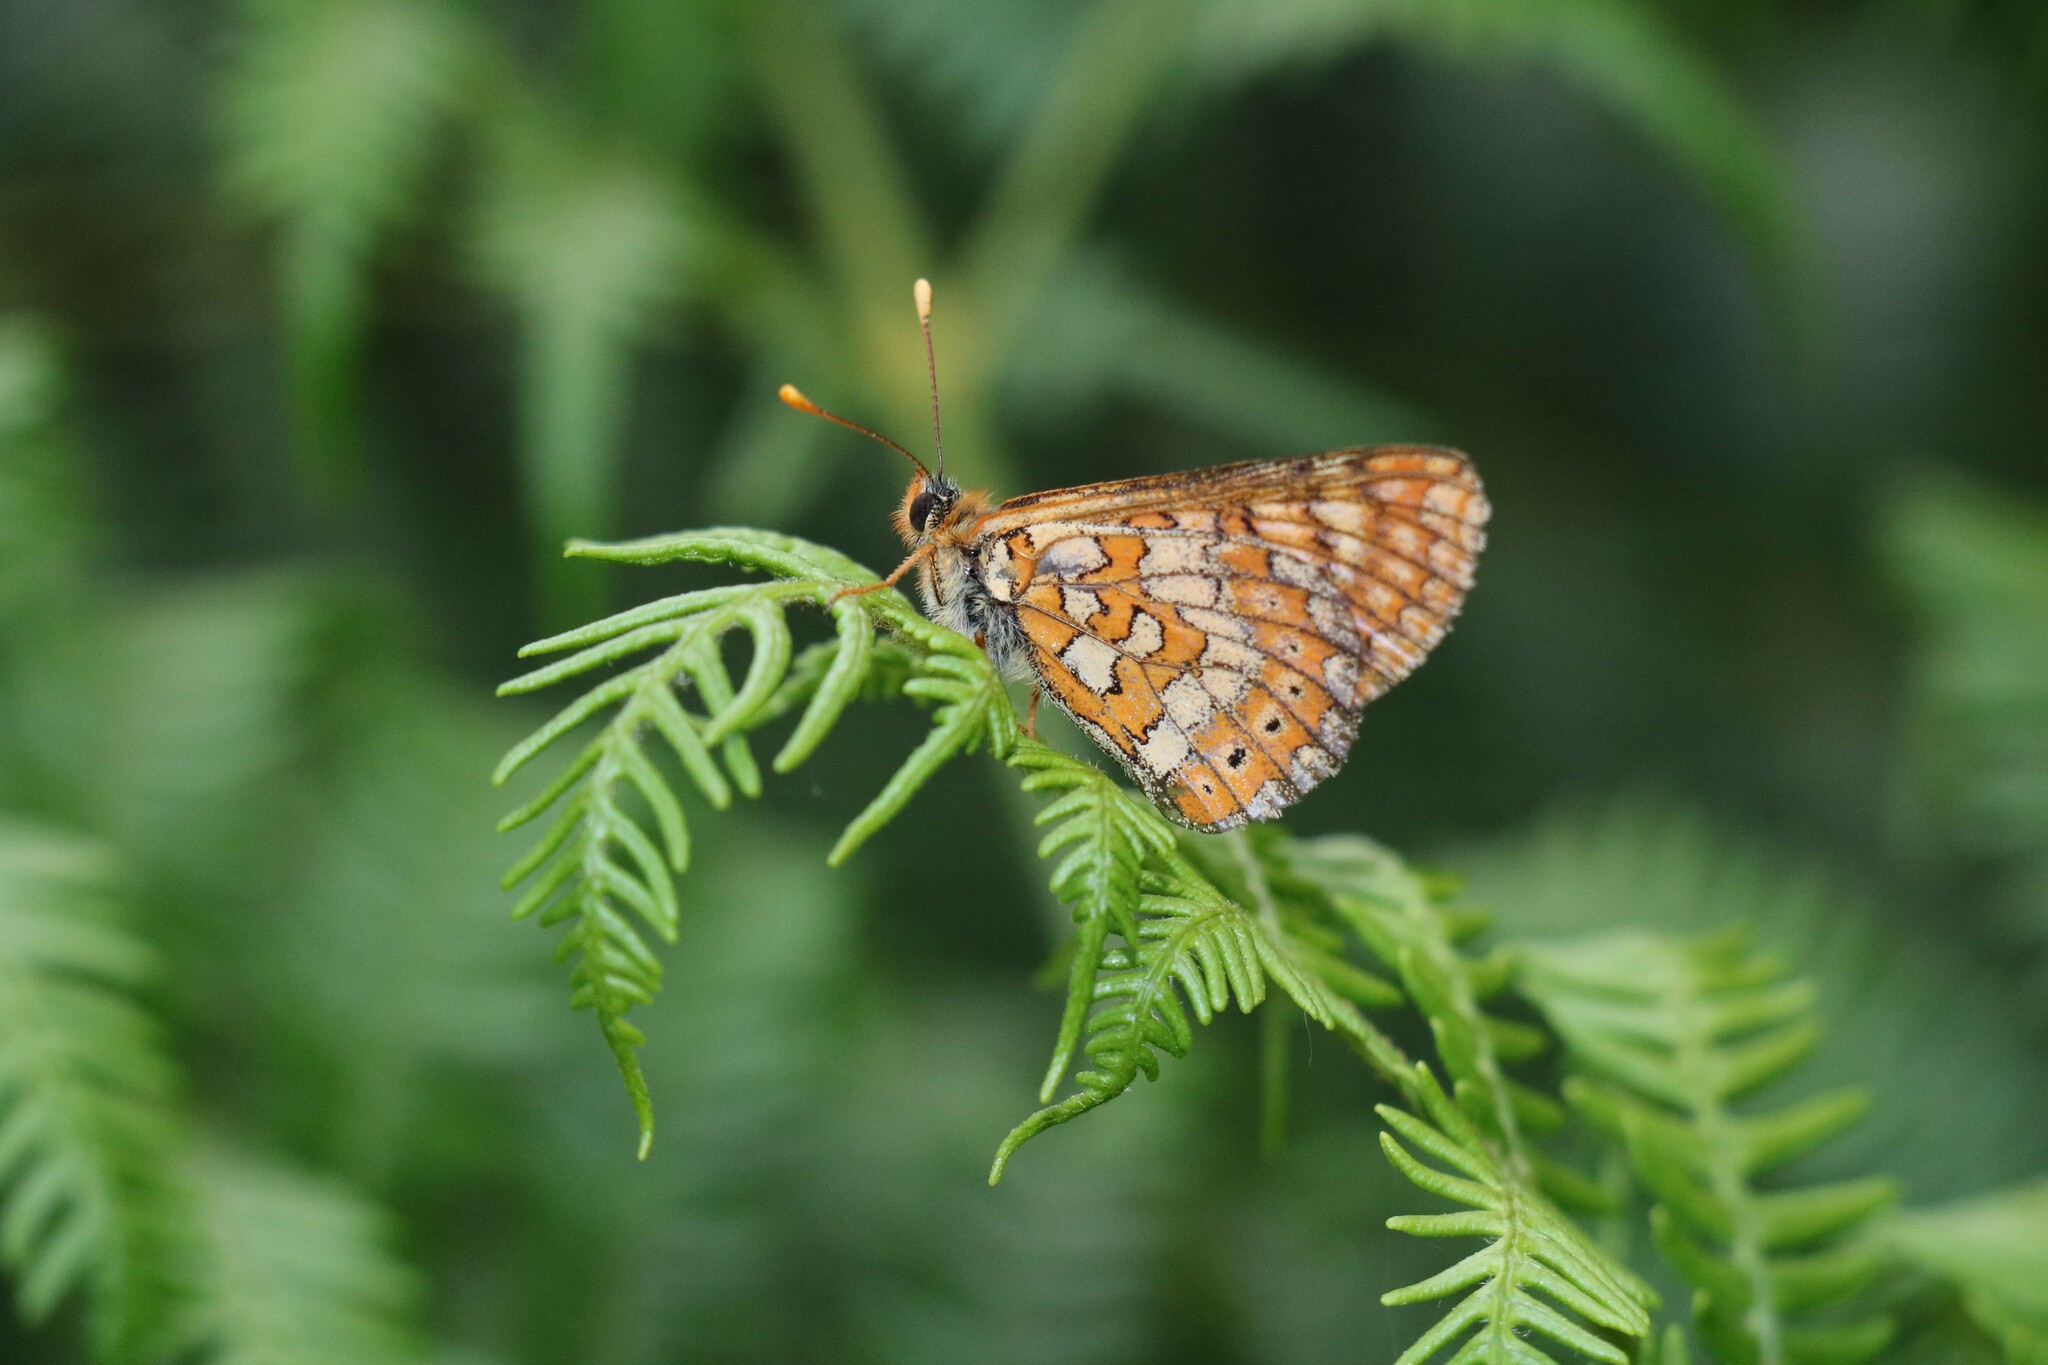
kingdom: Animalia
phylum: Arthropoda
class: Insecta
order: Lepidoptera
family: Nymphalidae
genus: Euphydryas
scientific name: Euphydryas aurinia
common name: Marsh fritillary
